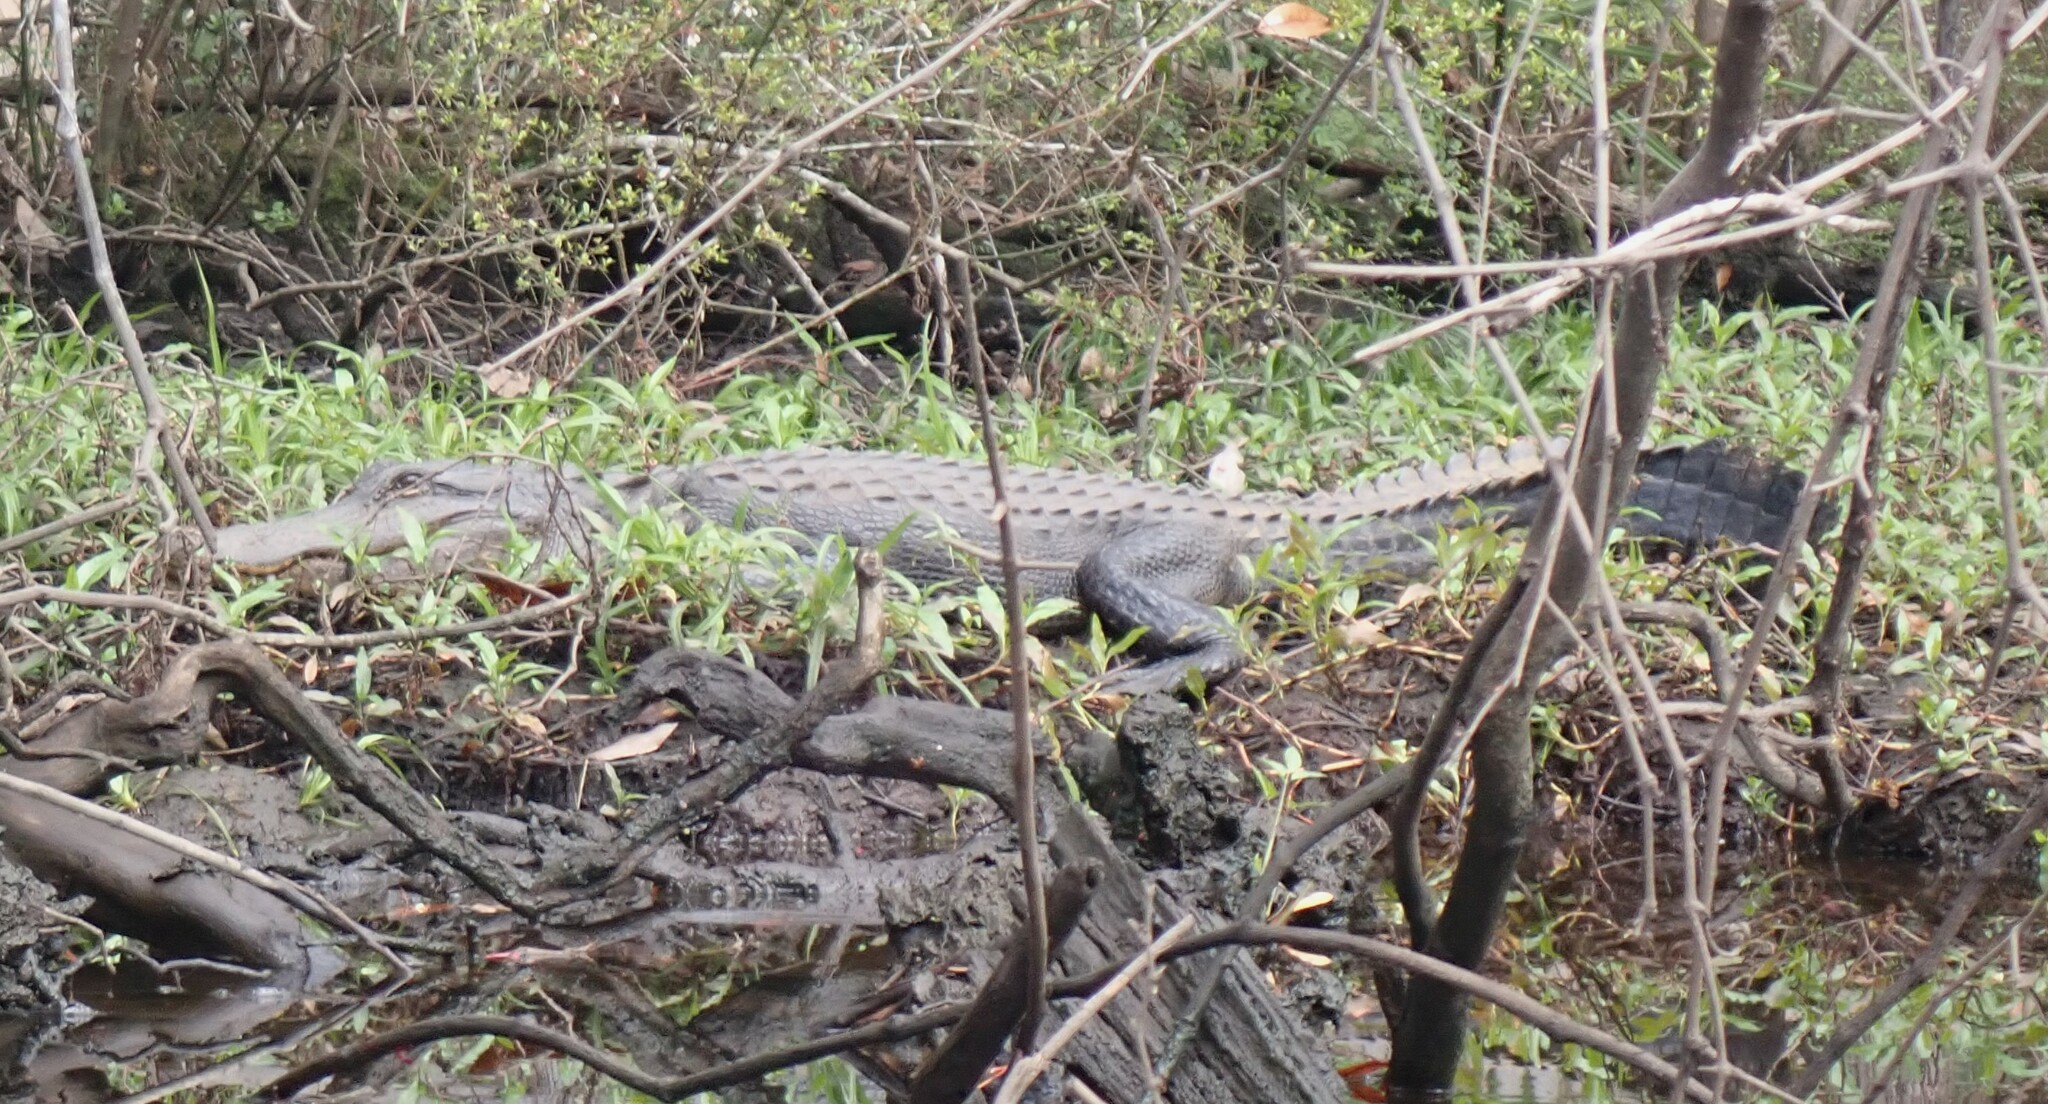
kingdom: Animalia
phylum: Chordata
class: Crocodylia
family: Alligatoridae
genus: Alligator
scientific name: Alligator mississippiensis
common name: American alligator
